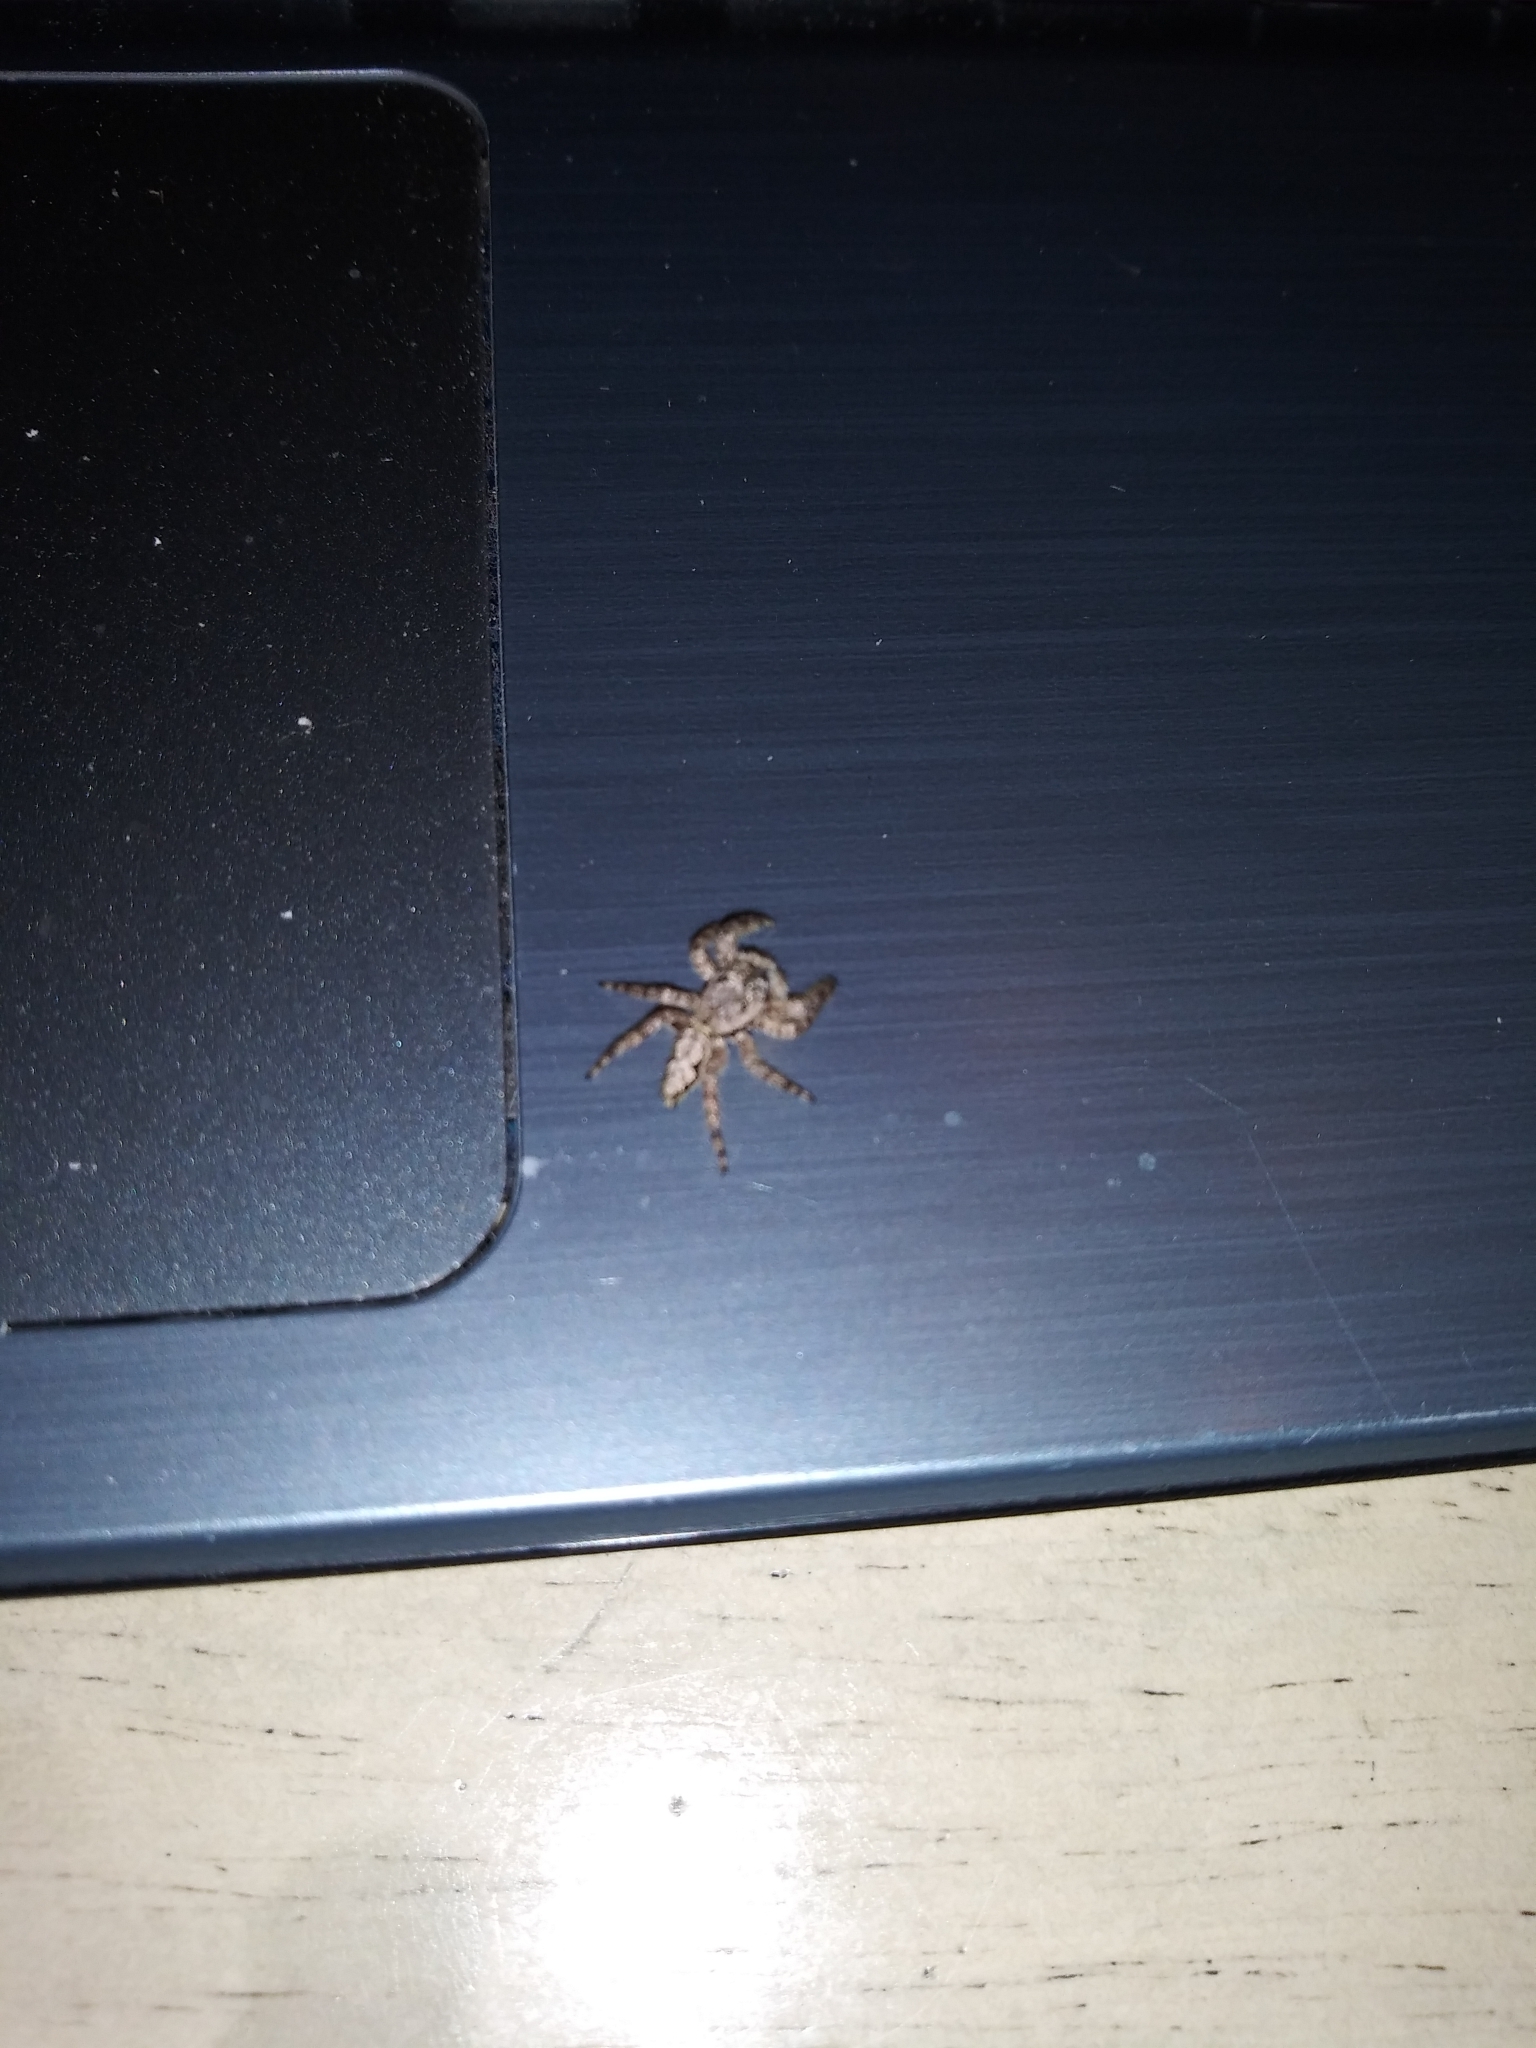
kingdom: Animalia
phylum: Arthropoda
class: Arachnida
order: Araneae
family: Salticidae
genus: Platycryptus
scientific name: Platycryptus undatus
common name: Tan jumping spider
